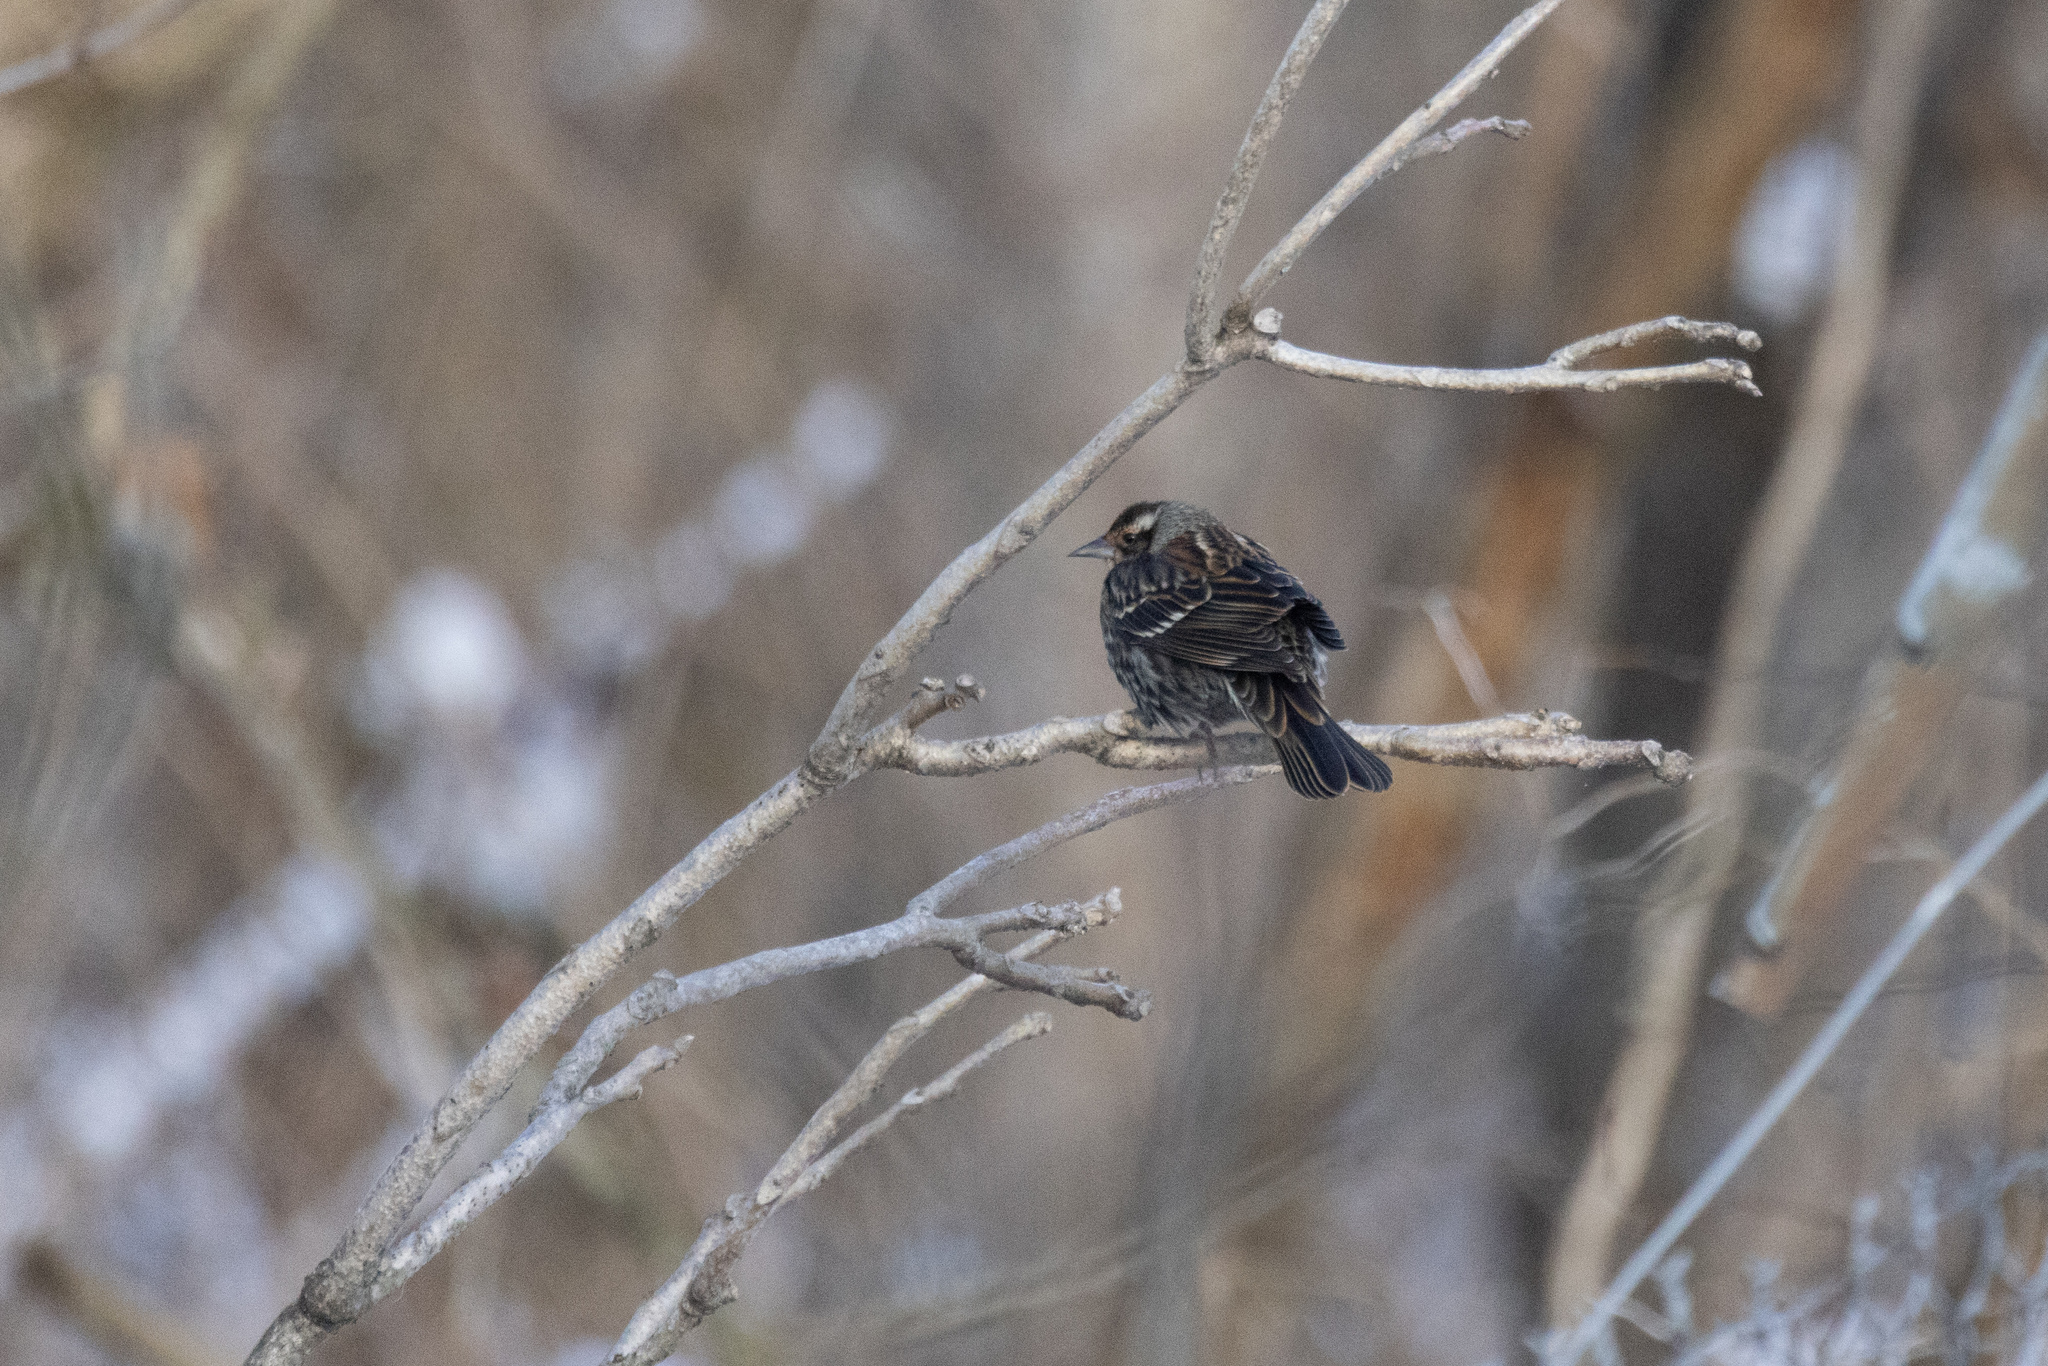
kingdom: Animalia
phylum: Chordata
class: Aves
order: Passeriformes
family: Icteridae
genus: Agelaius
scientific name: Agelaius phoeniceus
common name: Red-winged blackbird
